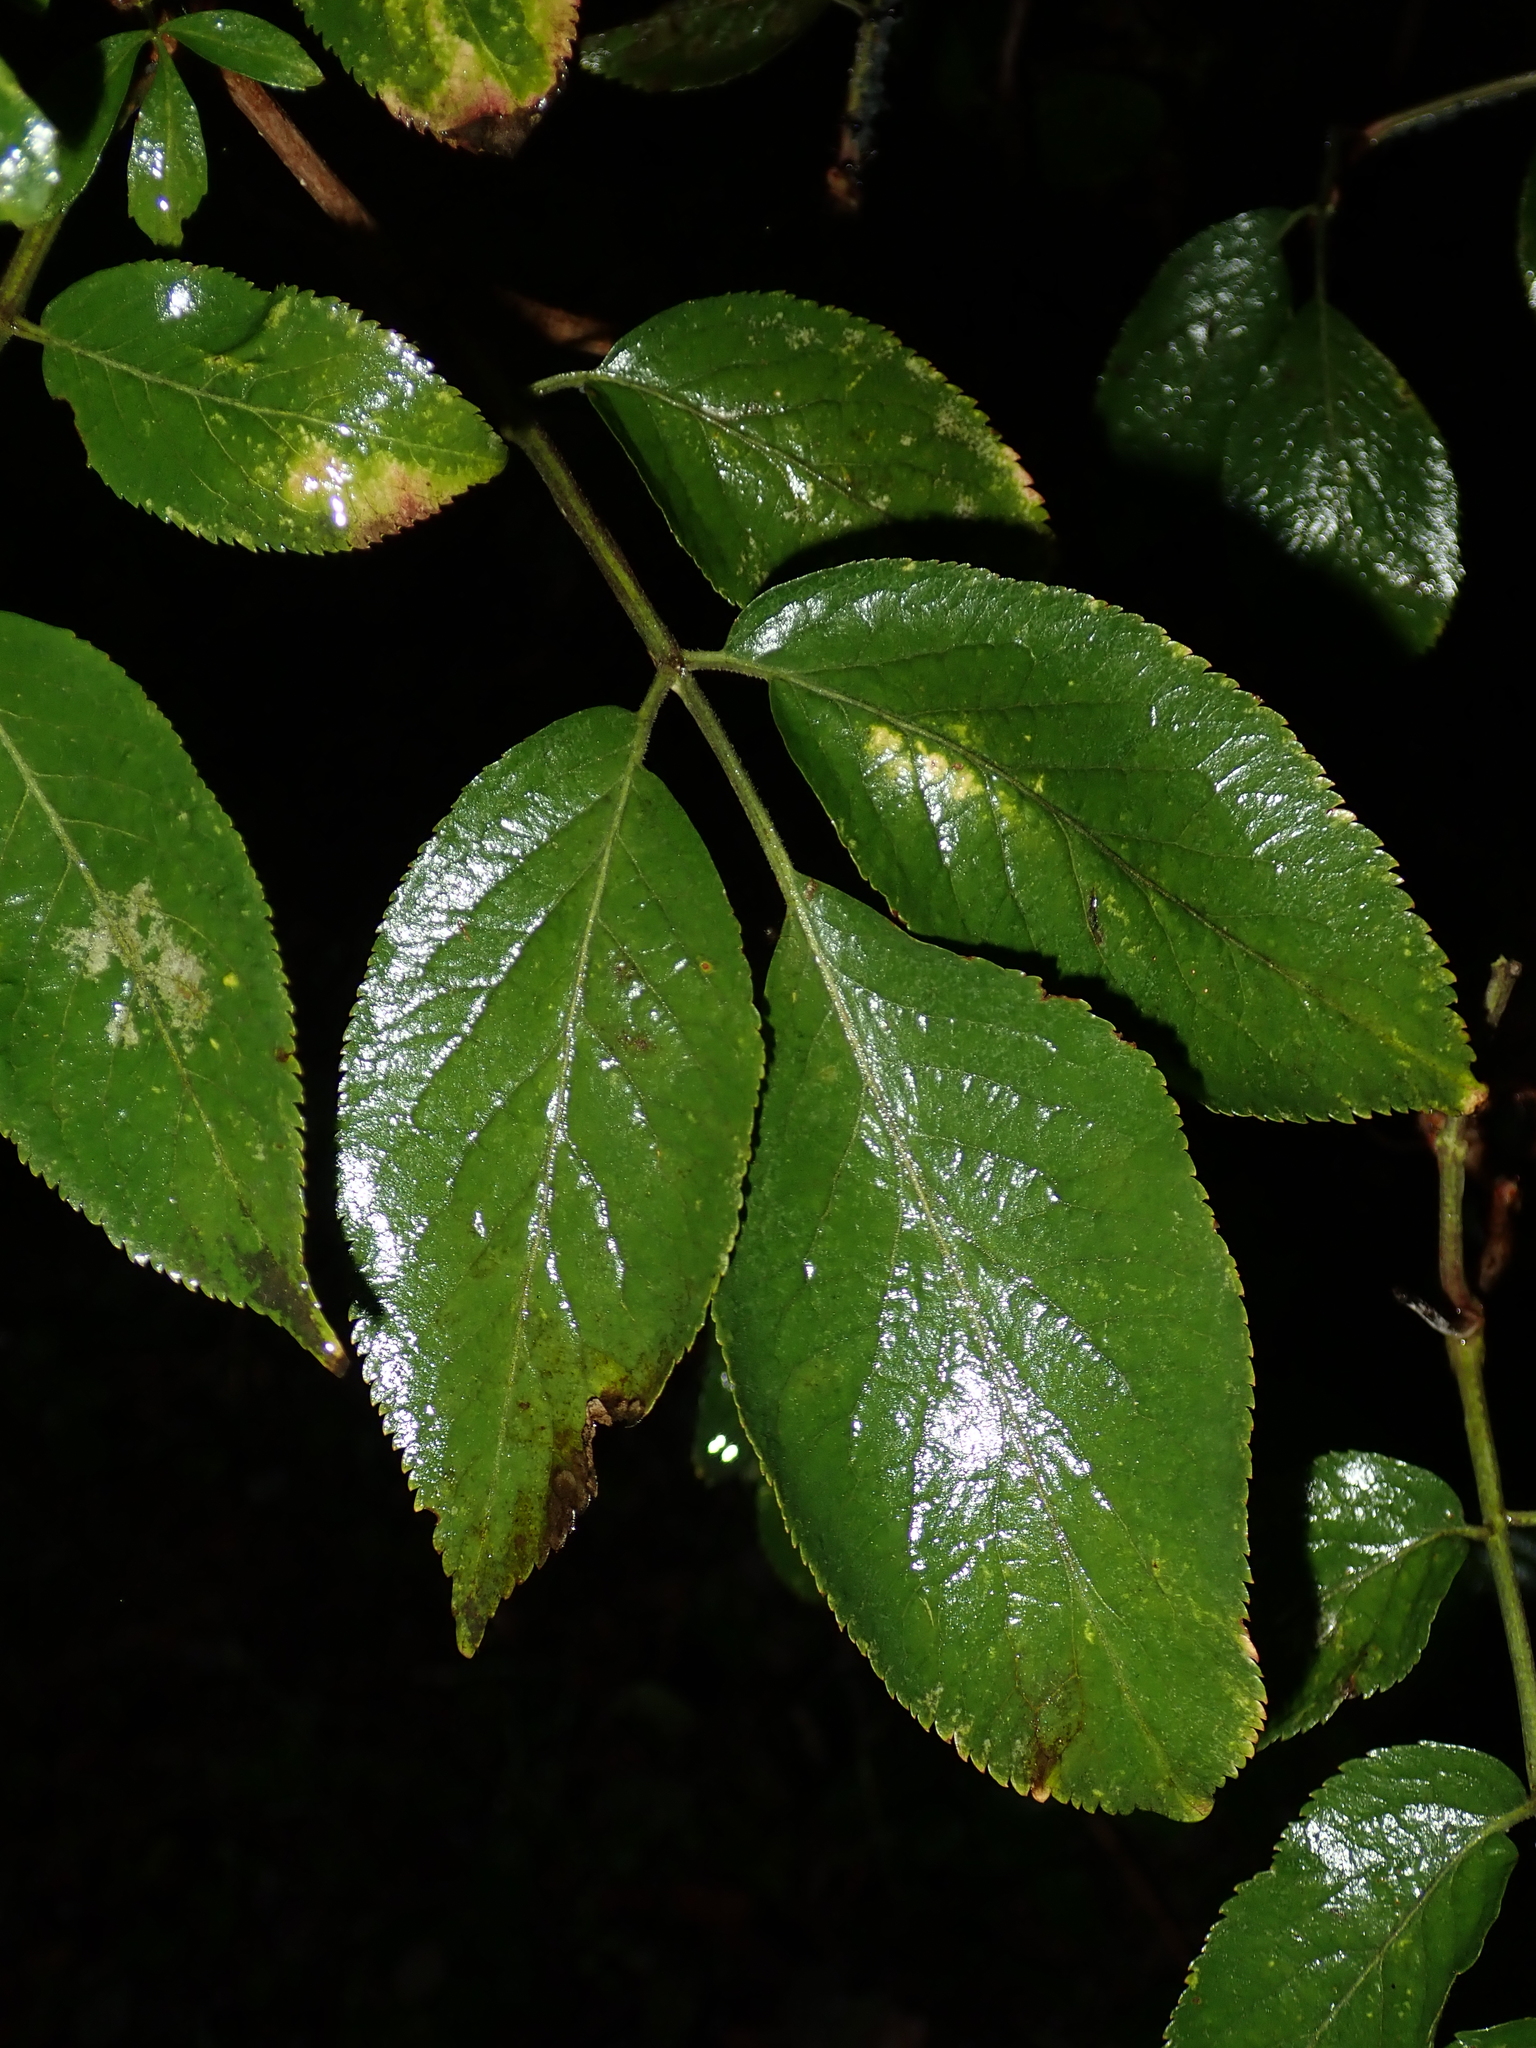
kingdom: Plantae
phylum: Tracheophyta
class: Magnoliopsida
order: Dipsacales
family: Viburnaceae
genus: Sambucus
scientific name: Sambucus nigra
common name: Elder
